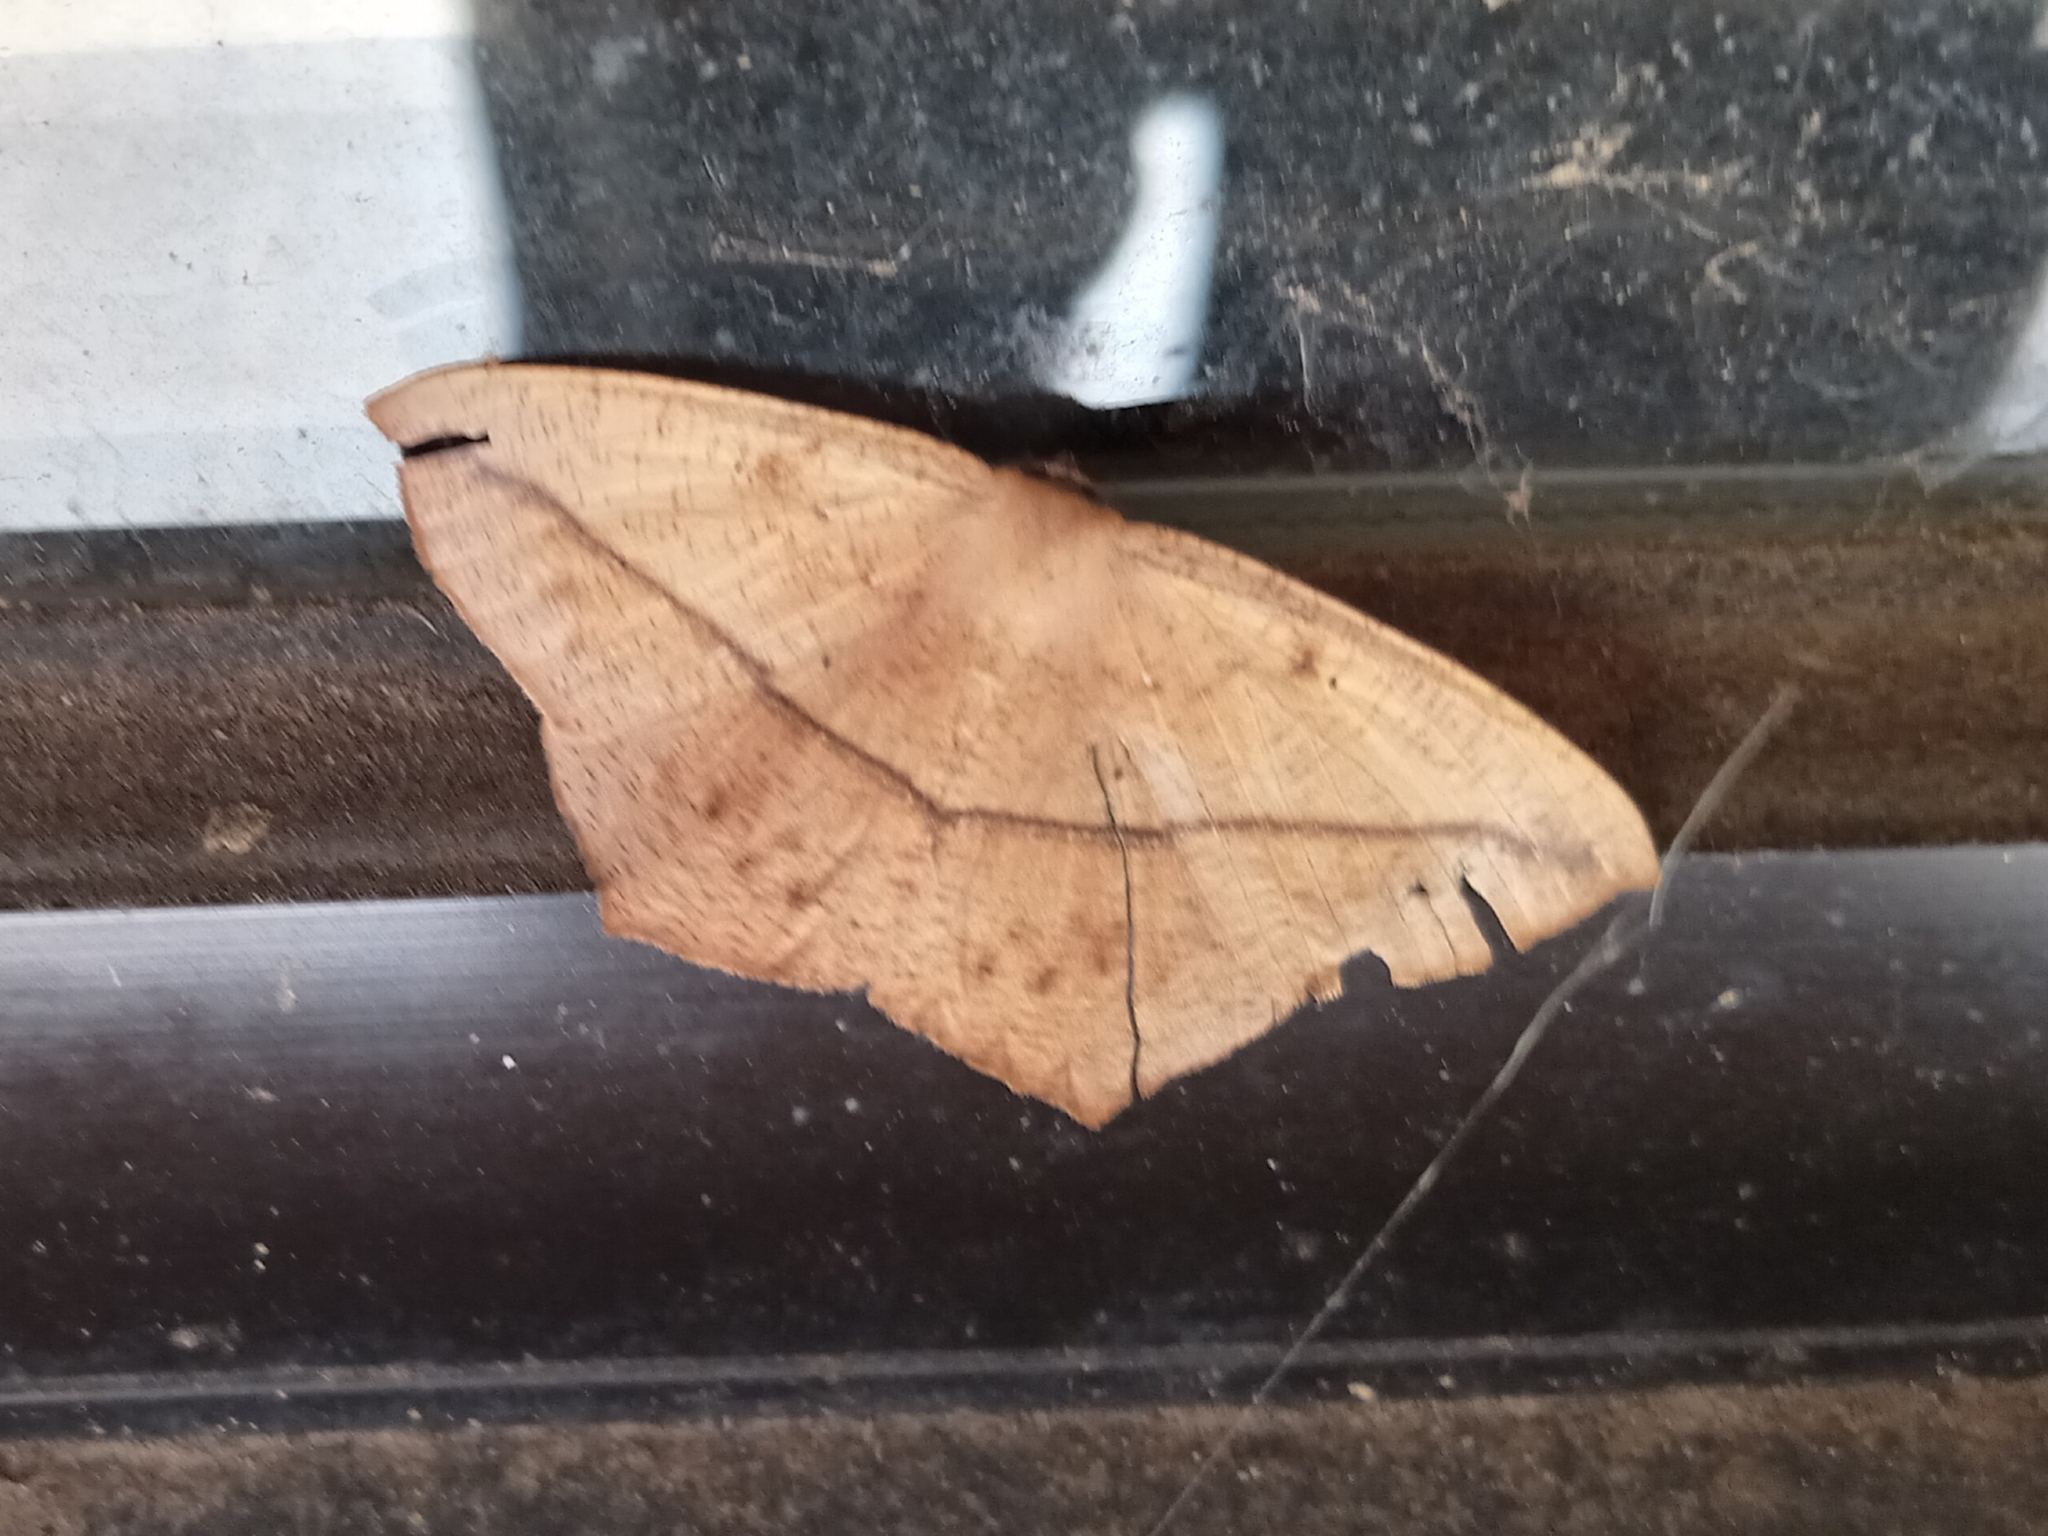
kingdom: Animalia
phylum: Arthropoda
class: Insecta
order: Lepidoptera
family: Geometridae
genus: Prochoerodes
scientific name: Prochoerodes lineola
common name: Large maple spanworm
